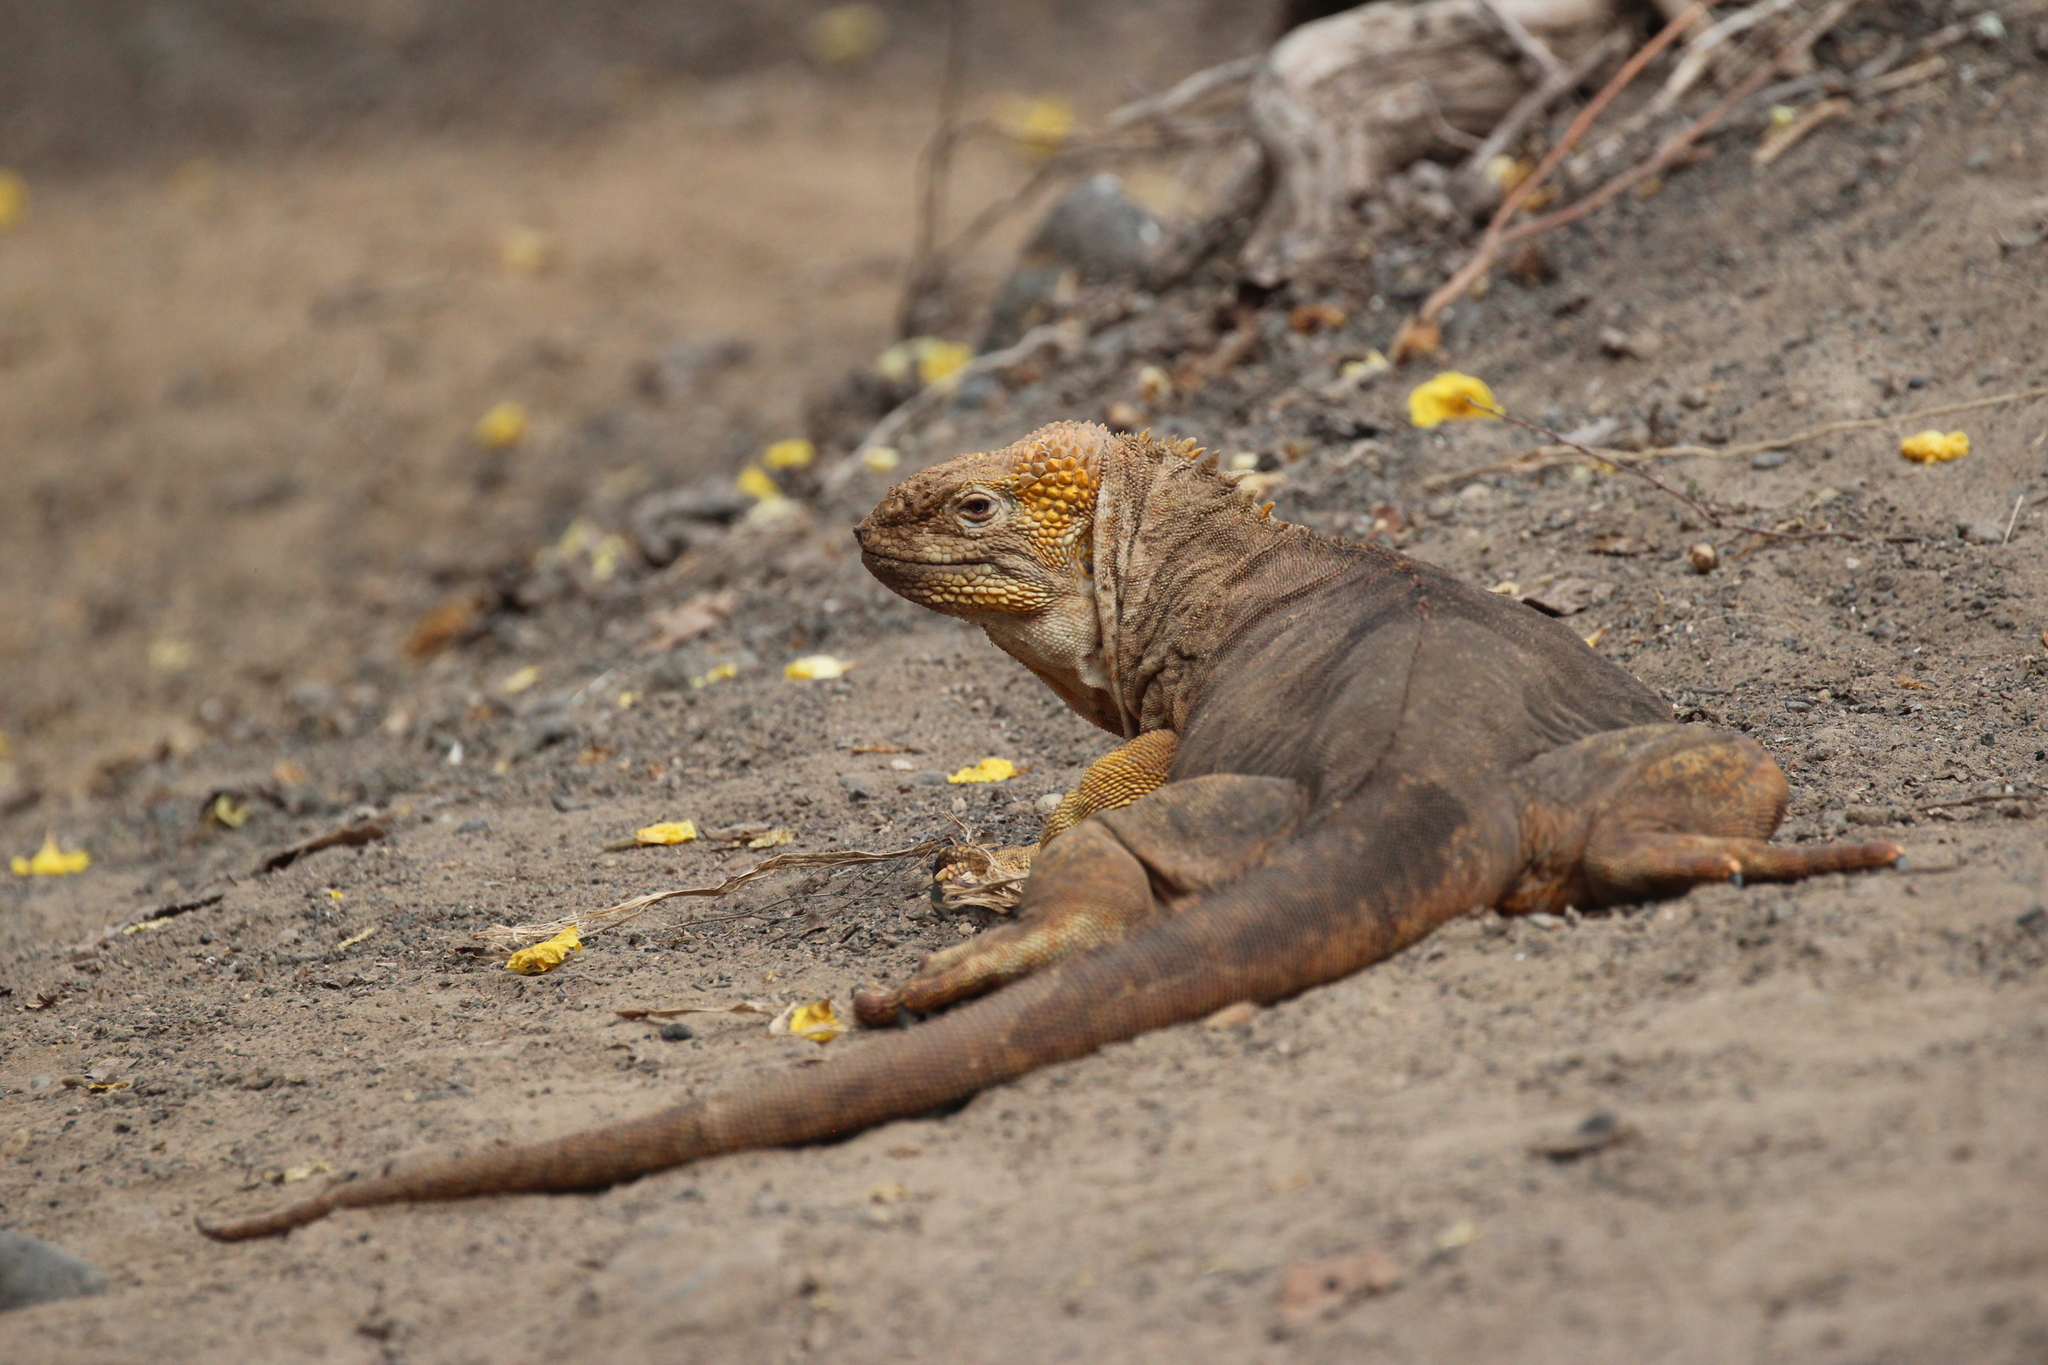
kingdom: Animalia
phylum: Chordata
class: Squamata
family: Iguanidae
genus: Conolophus
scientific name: Conolophus subcristatus
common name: Galapagos land iguana
